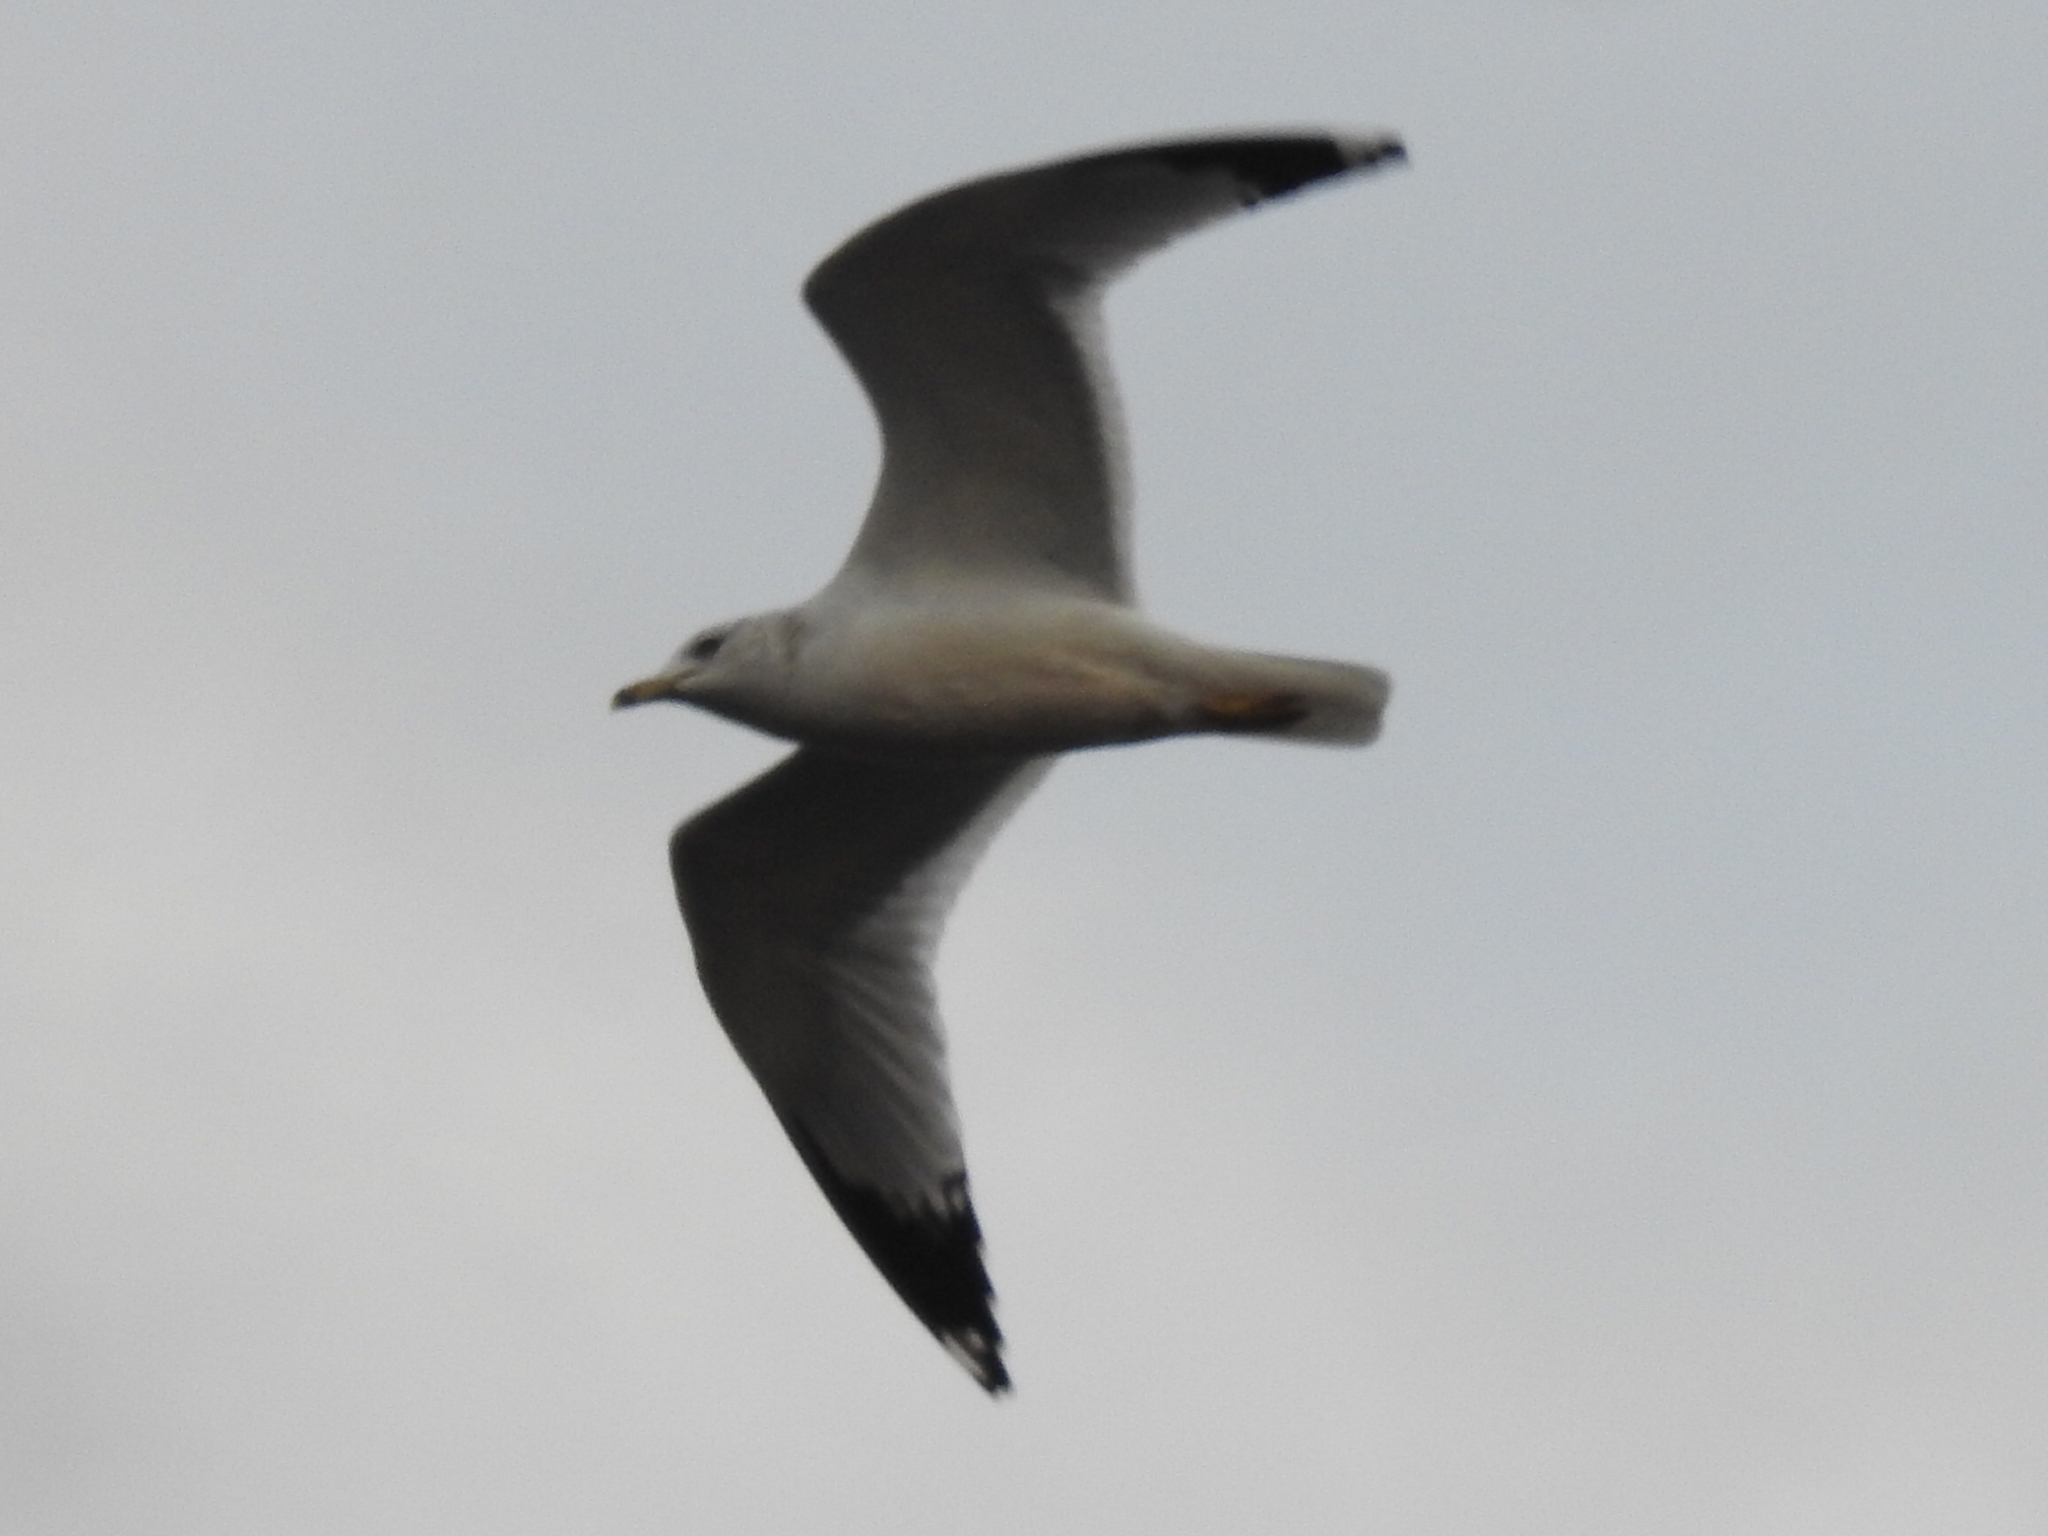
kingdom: Animalia
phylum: Chordata
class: Aves
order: Charadriiformes
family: Laridae
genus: Larus
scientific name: Larus delawarensis
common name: Ring-billed gull
